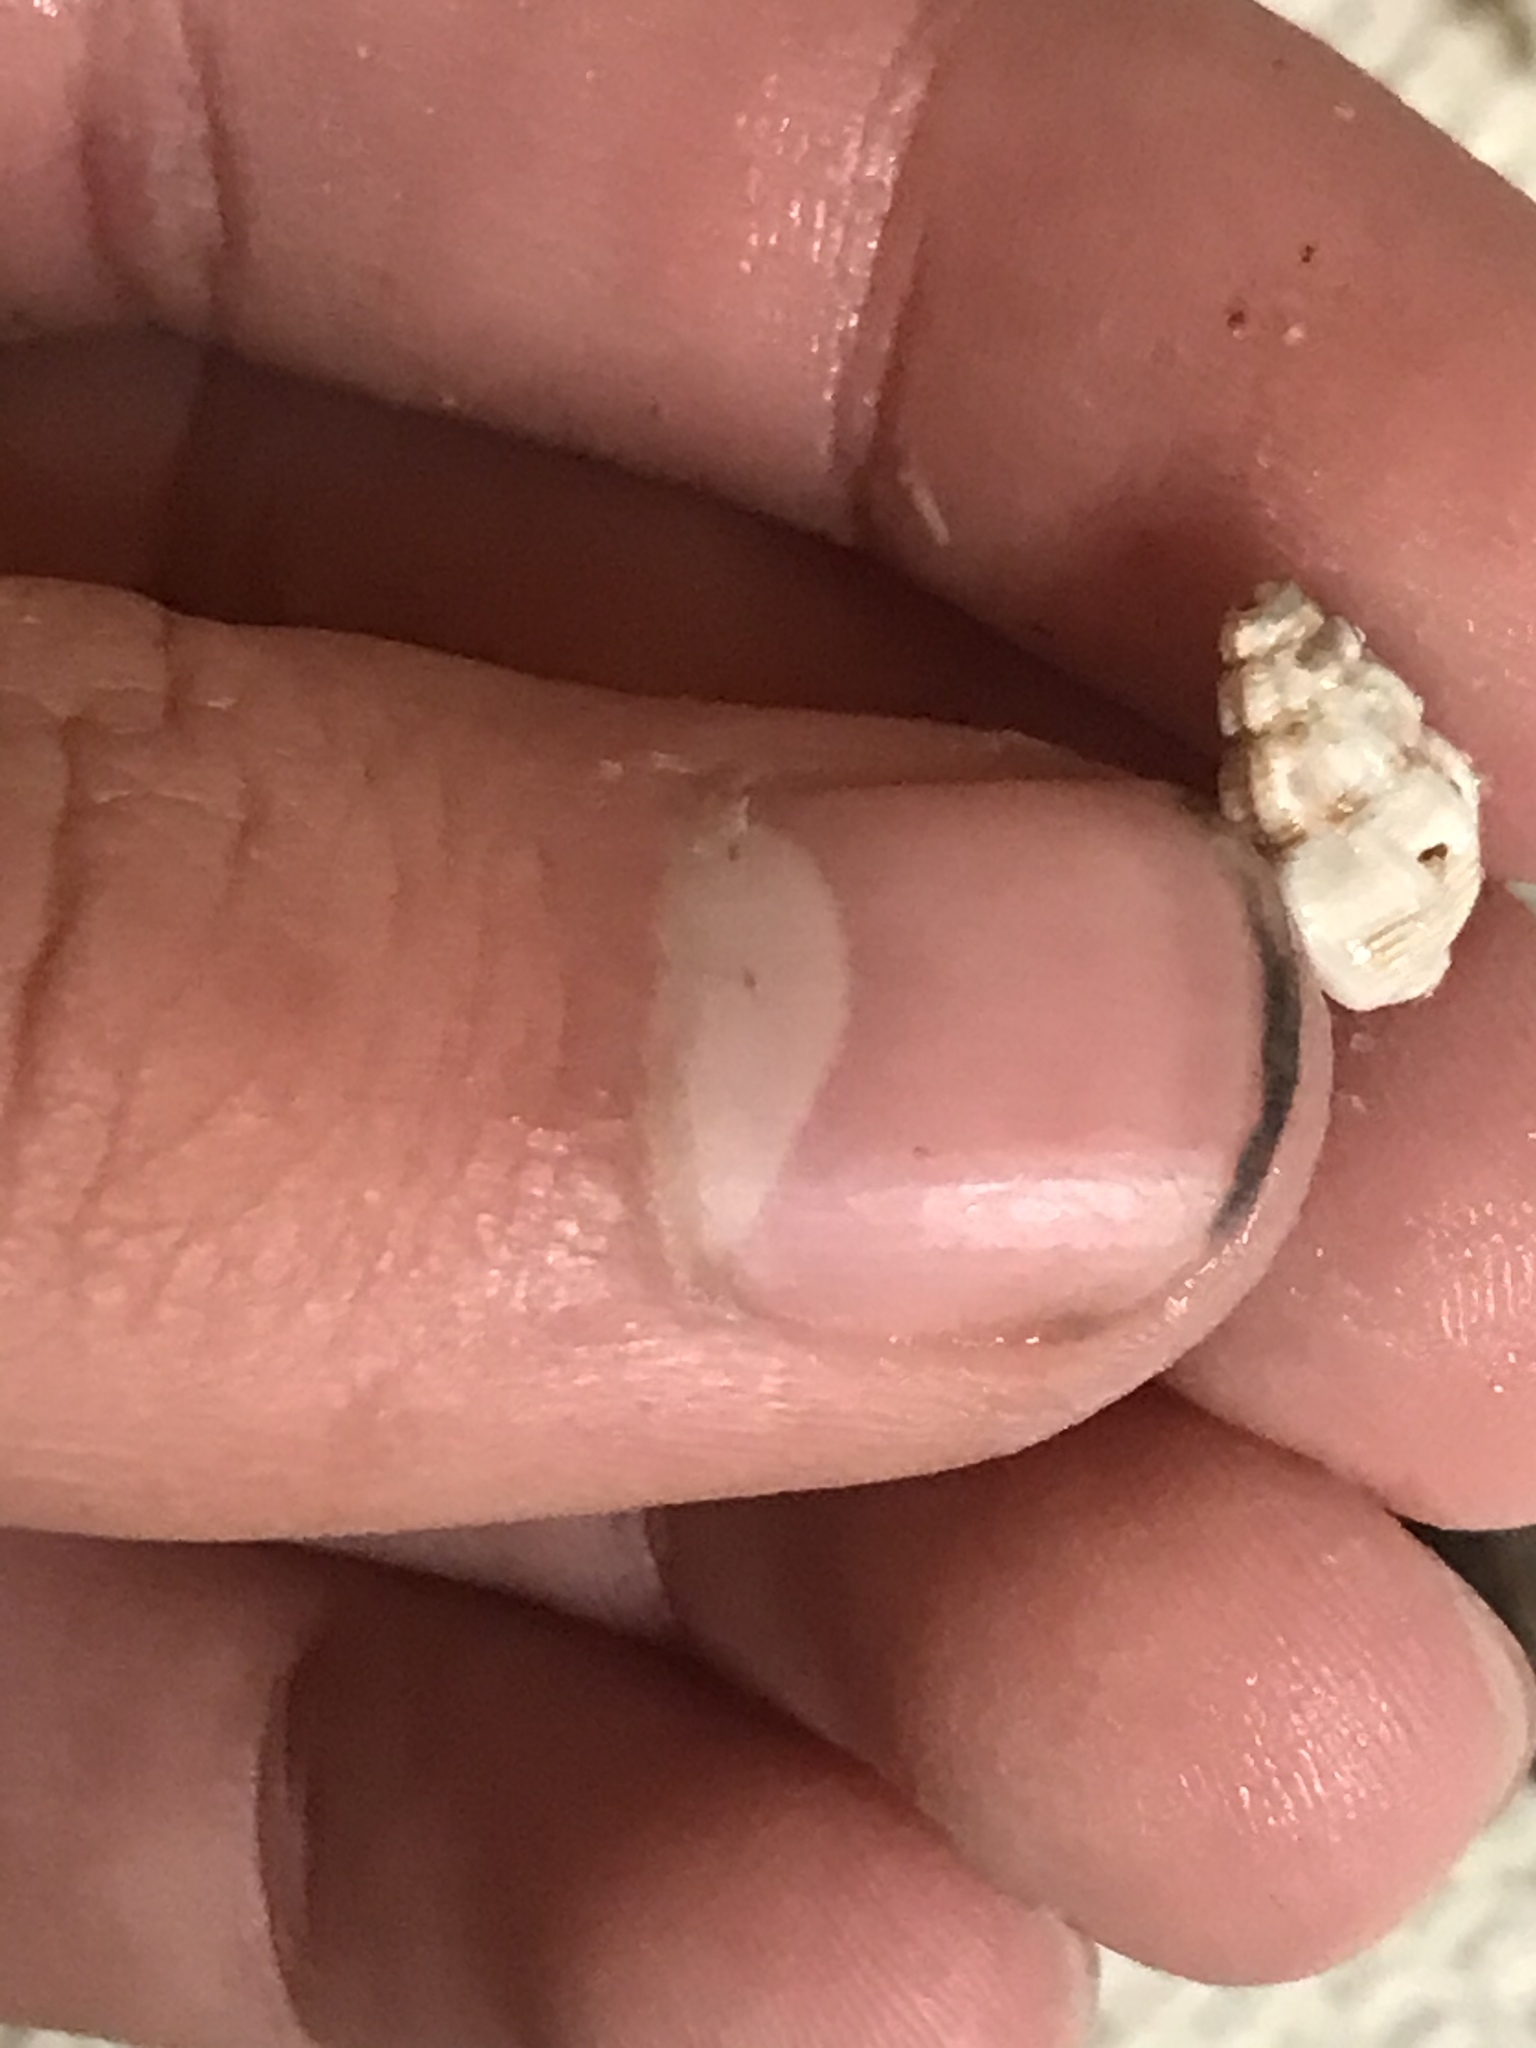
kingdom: Animalia
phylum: Mollusca
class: Gastropoda
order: Neogastropoda
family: Nassariidae
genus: Nassarius
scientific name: Nassarius mendicus
